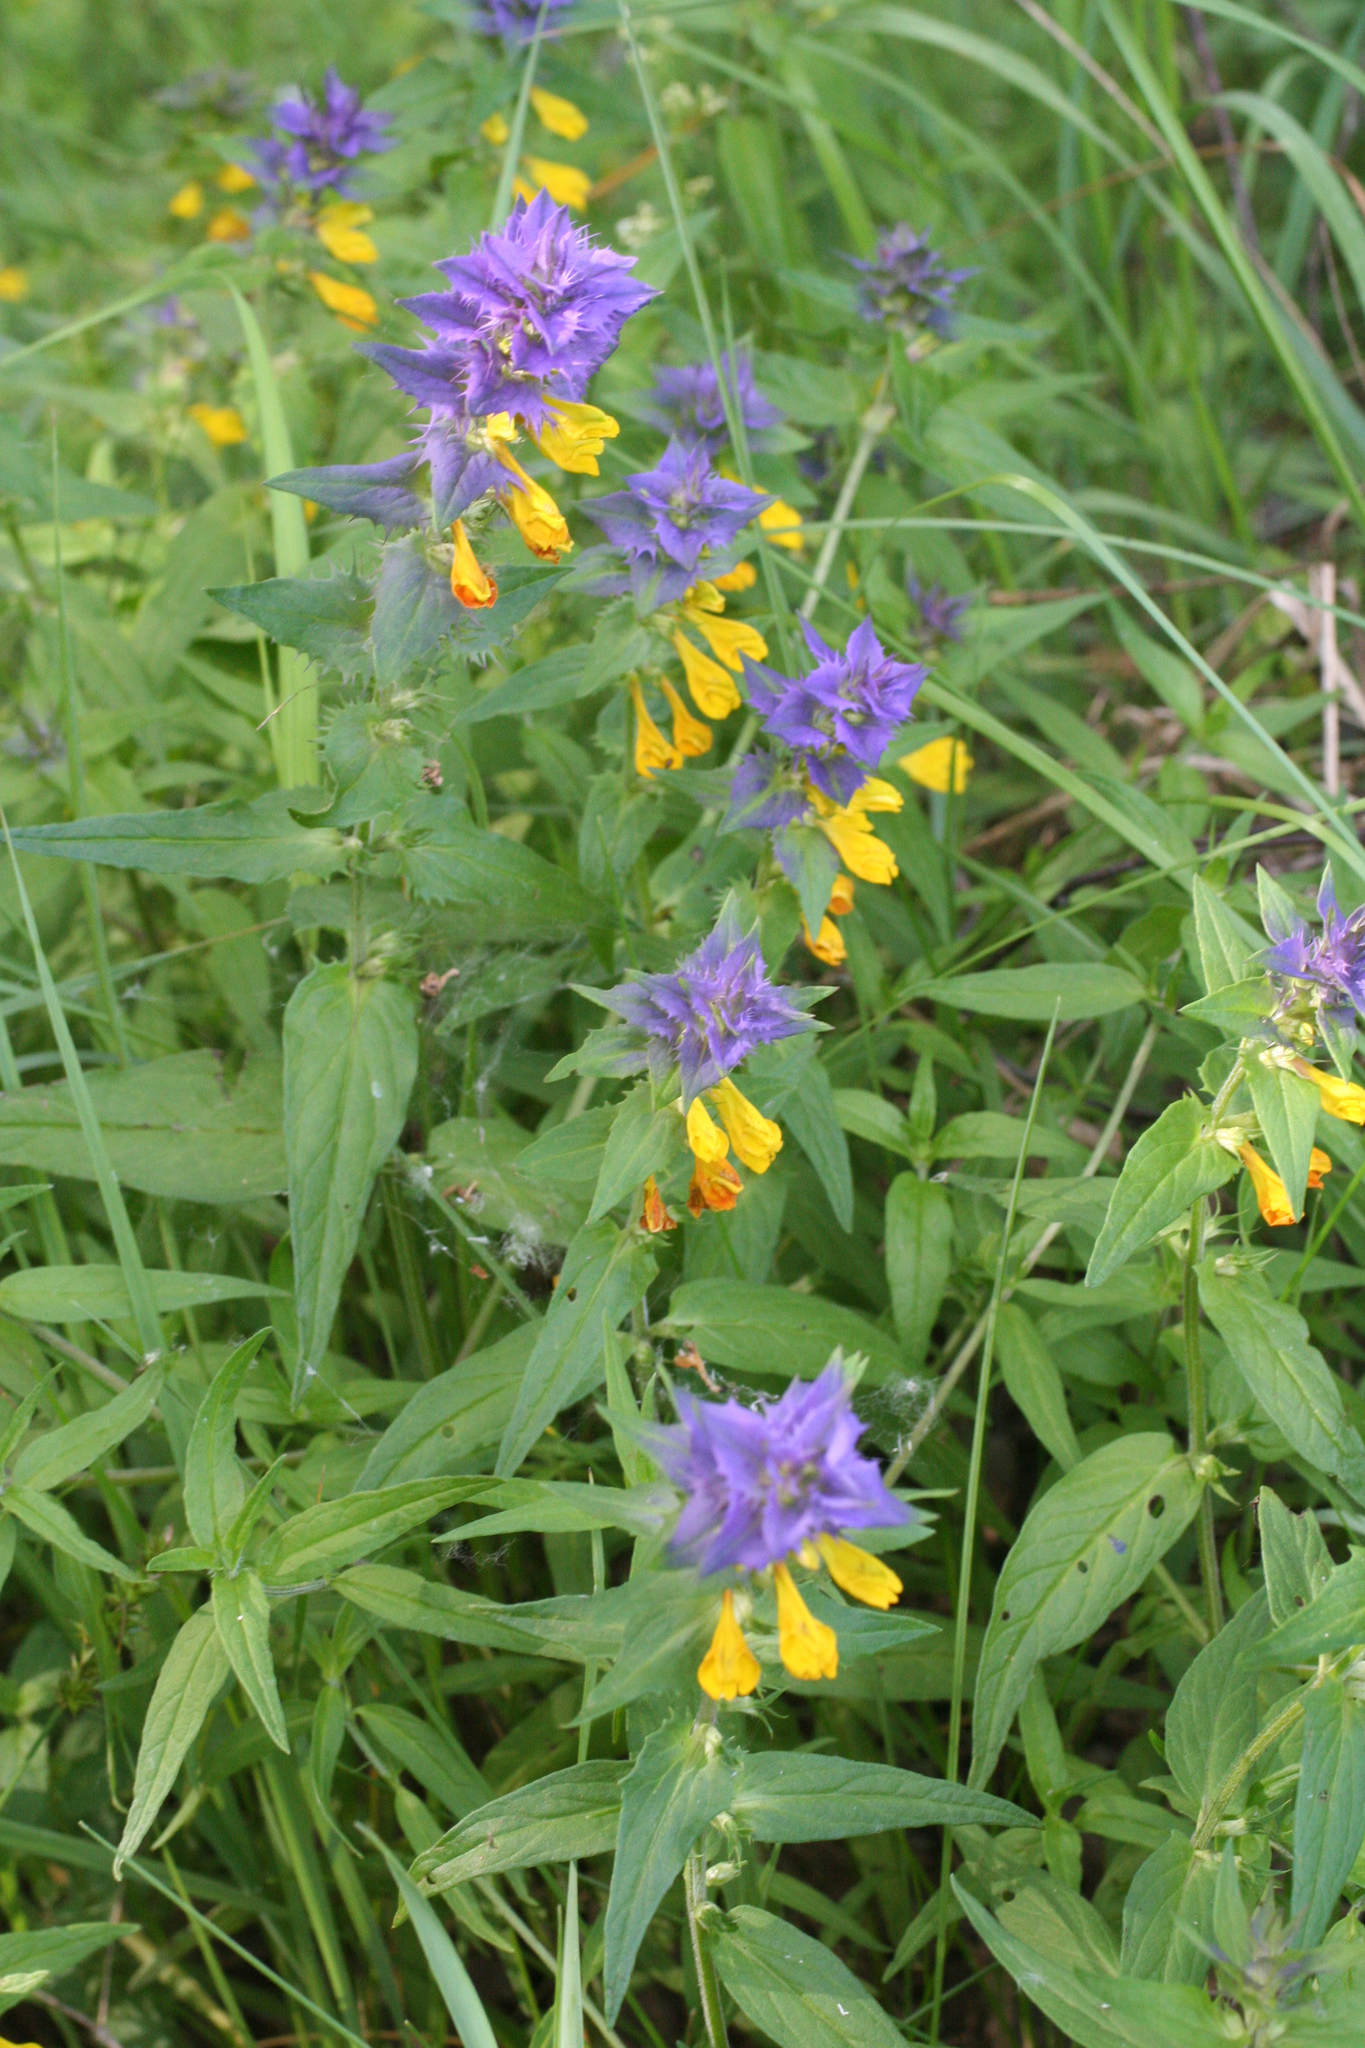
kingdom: Plantae
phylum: Tracheophyta
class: Magnoliopsida
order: Lamiales
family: Orobanchaceae
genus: Melampyrum
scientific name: Melampyrum nemorosum
